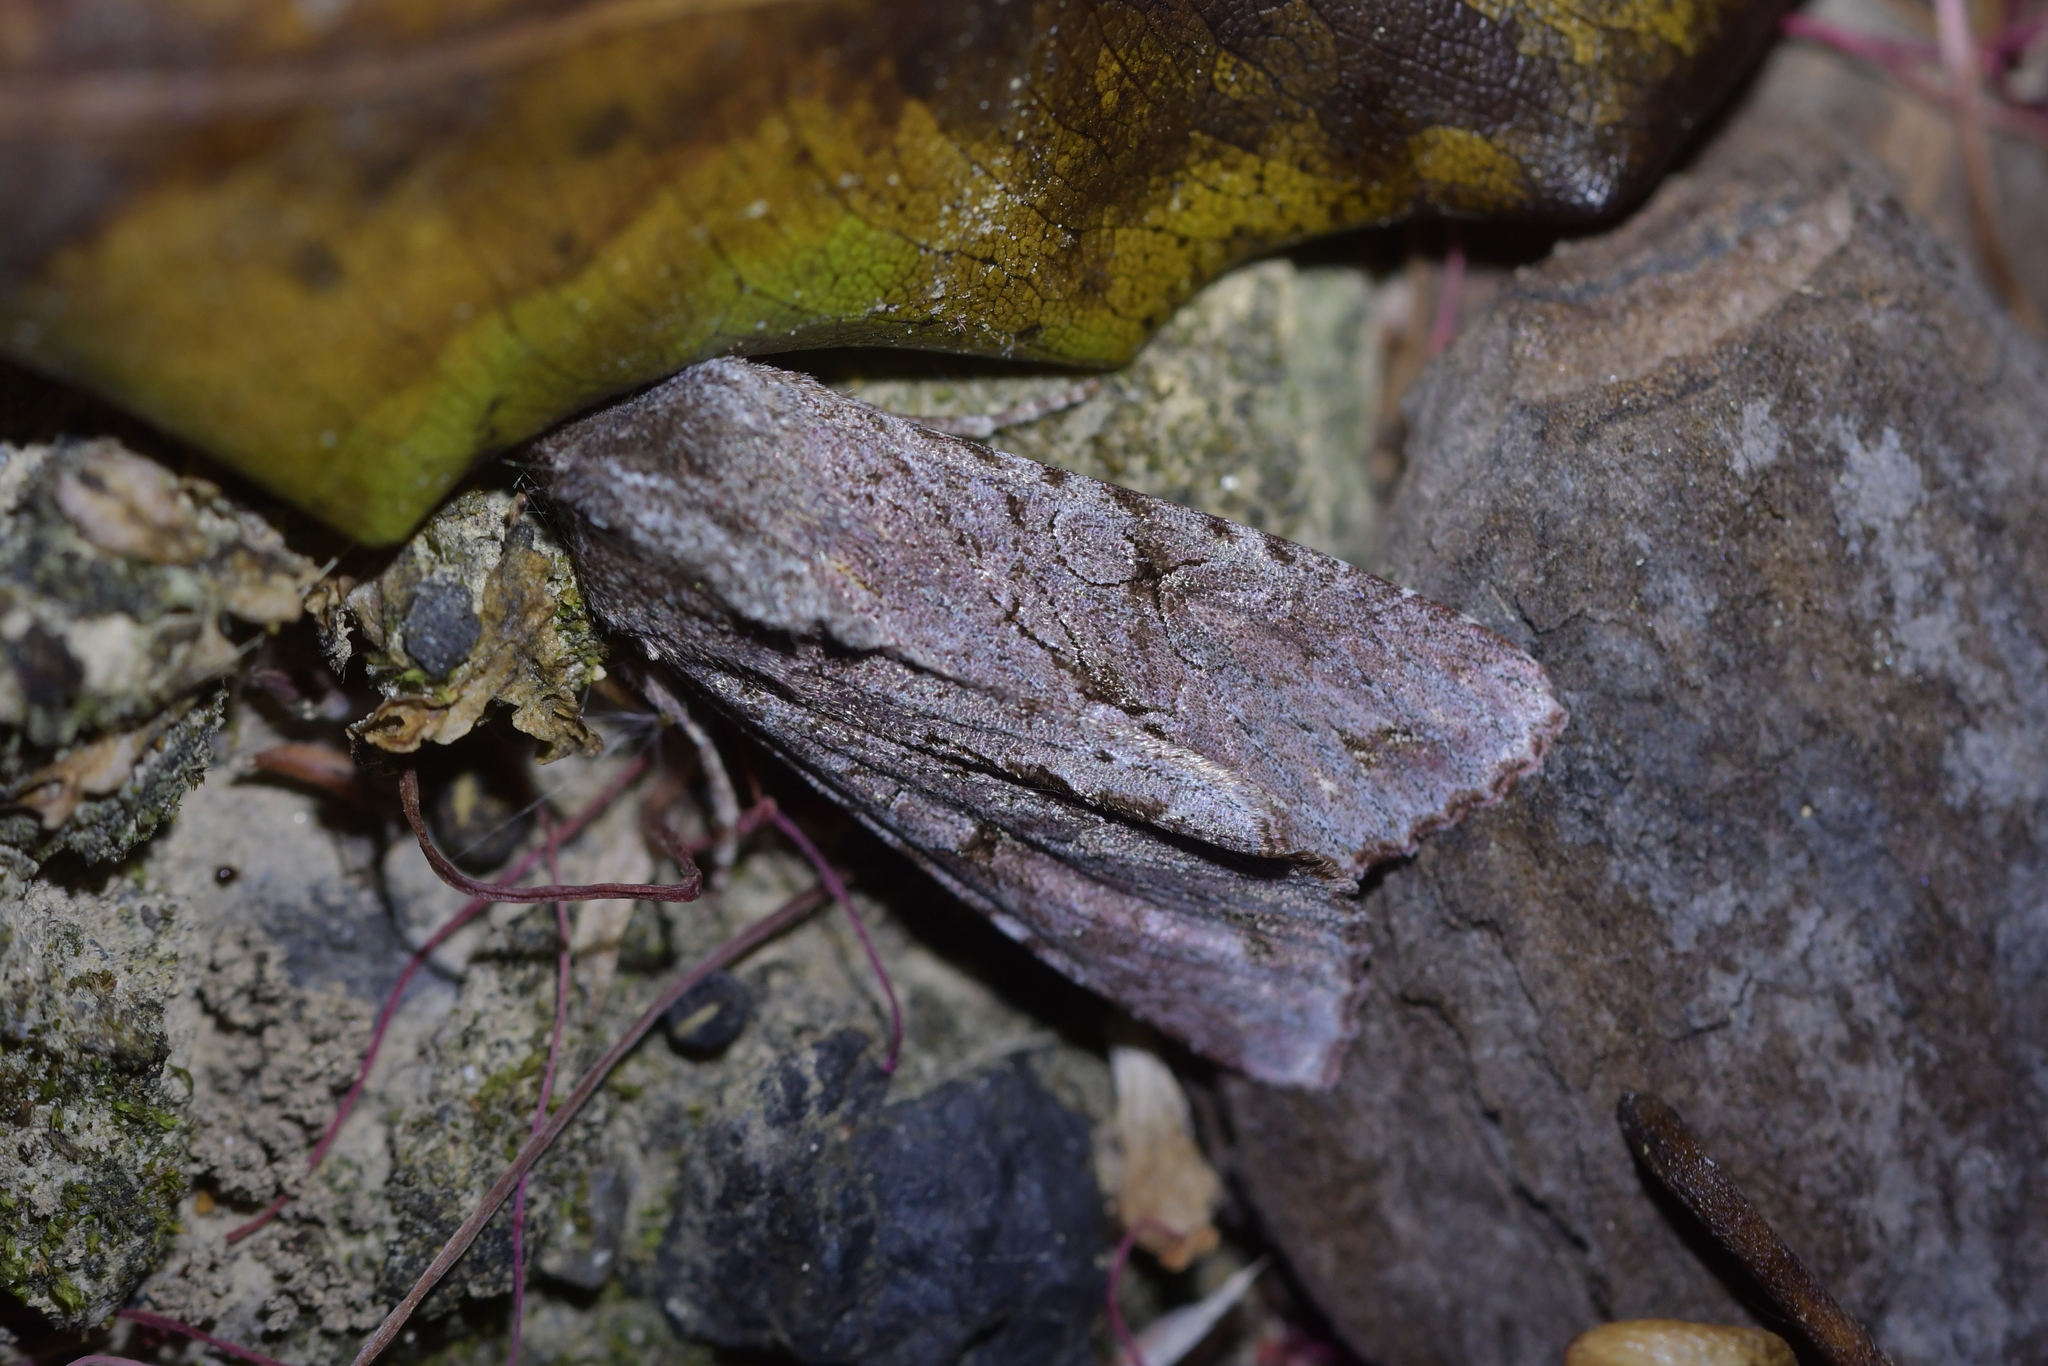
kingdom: Animalia
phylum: Arthropoda
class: Insecta
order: Lepidoptera
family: Noctuidae
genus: Ichneutica
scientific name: Ichneutica
